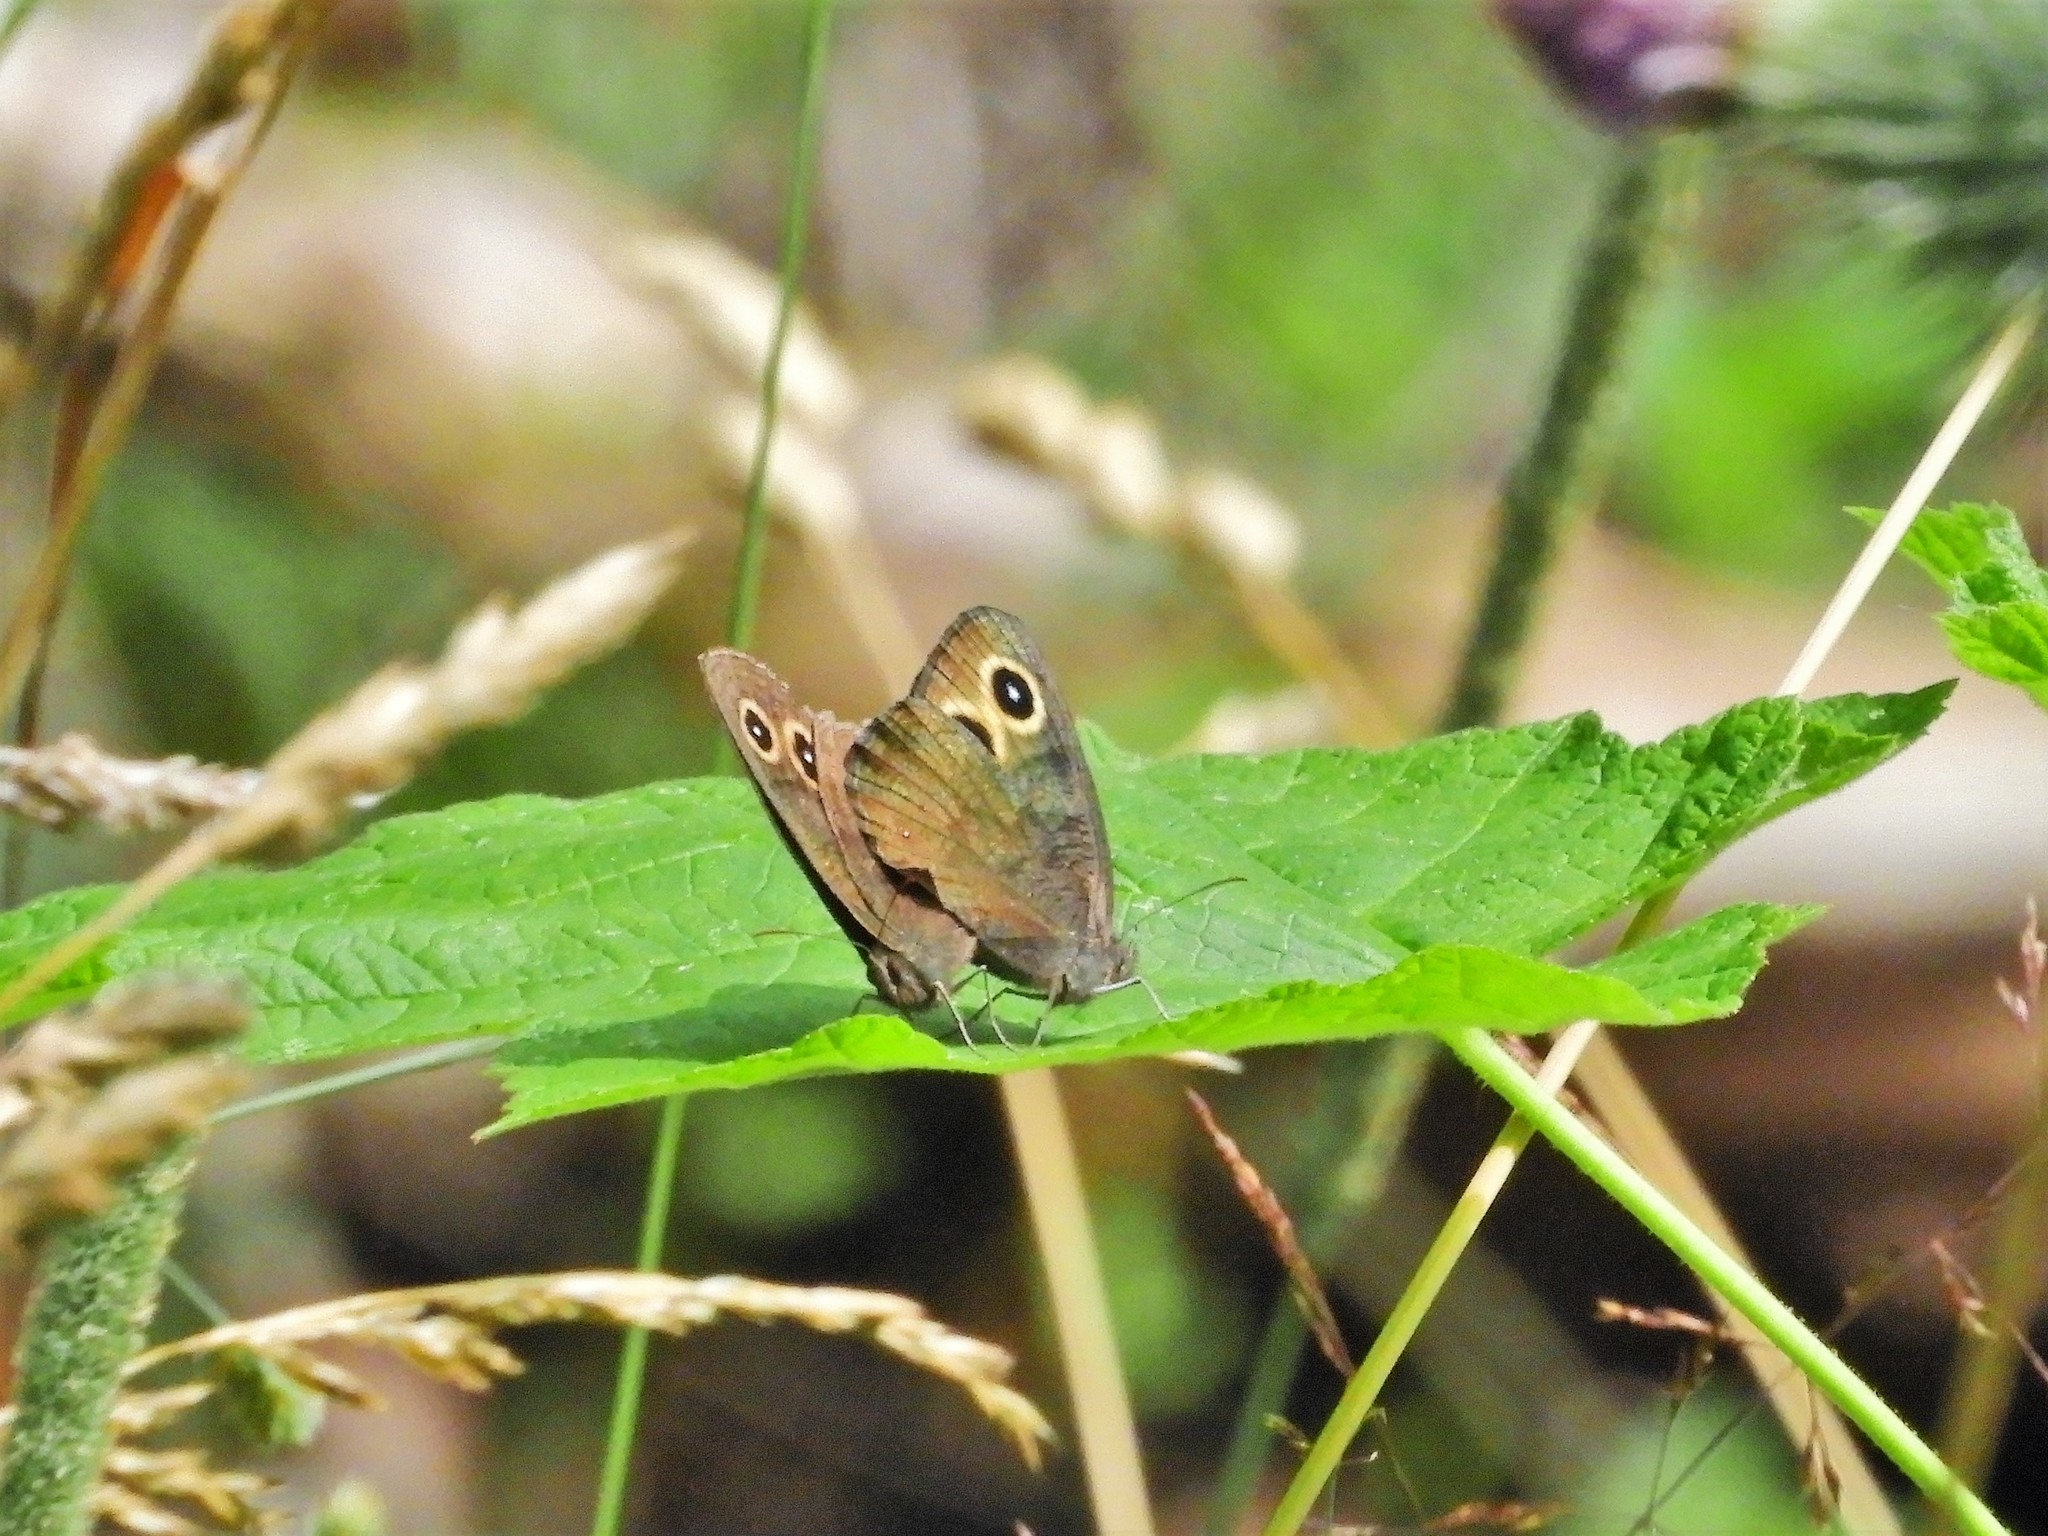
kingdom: Animalia
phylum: Arthropoda
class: Insecta
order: Lepidoptera
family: Nymphalidae
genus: Cercyonis
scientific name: Cercyonis pegala
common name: Common wood-nymph
